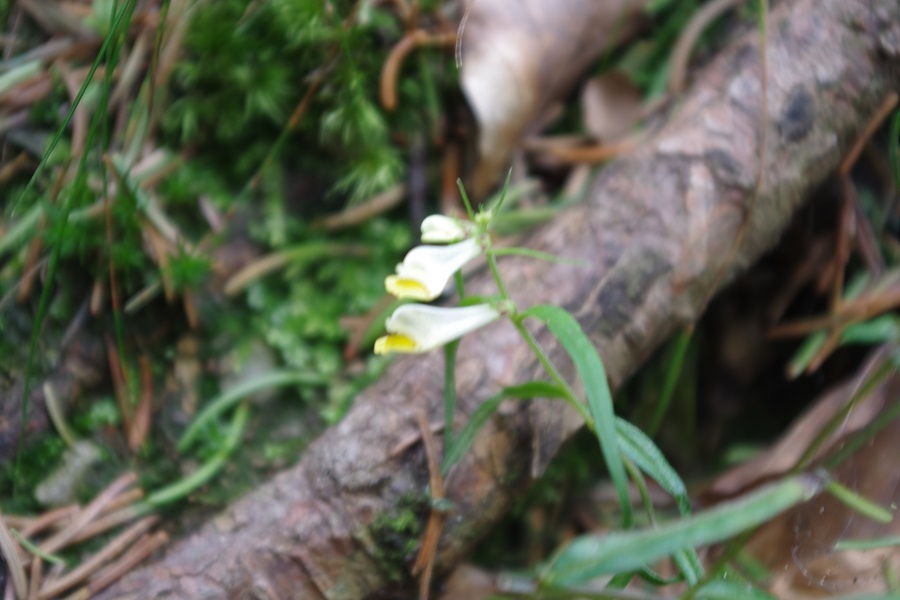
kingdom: Plantae
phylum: Tracheophyta
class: Magnoliopsida
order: Lamiales
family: Orobanchaceae
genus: Melampyrum
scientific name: Melampyrum pratense
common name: Common cow-wheat
